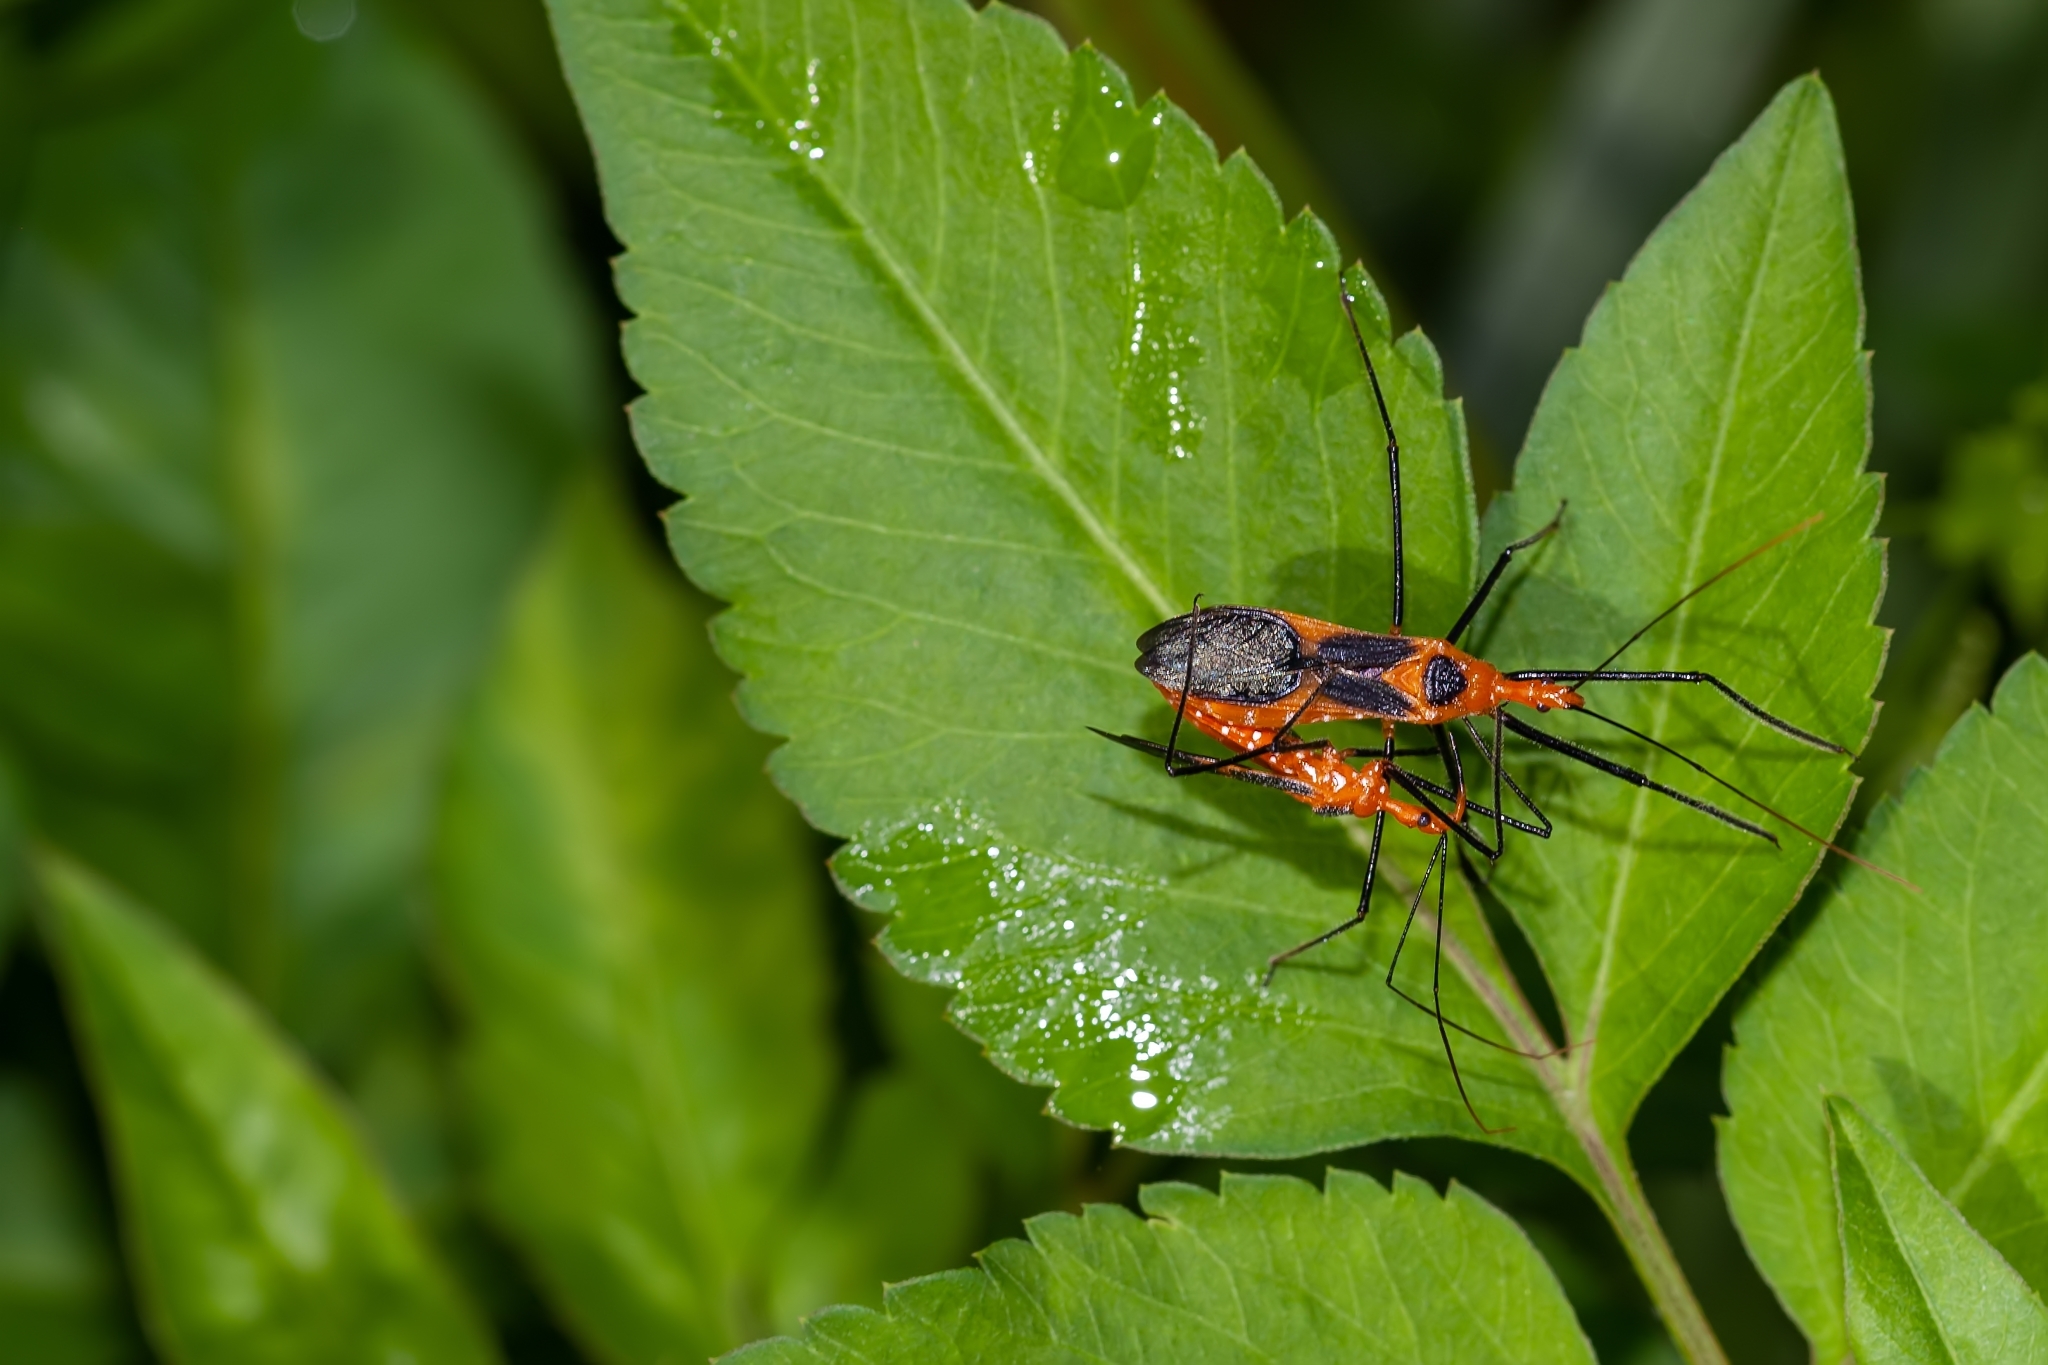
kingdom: Animalia
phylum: Arthropoda
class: Insecta
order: Hemiptera
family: Reduviidae
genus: Zelus
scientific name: Zelus longipes
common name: Milkweed assassin bug
